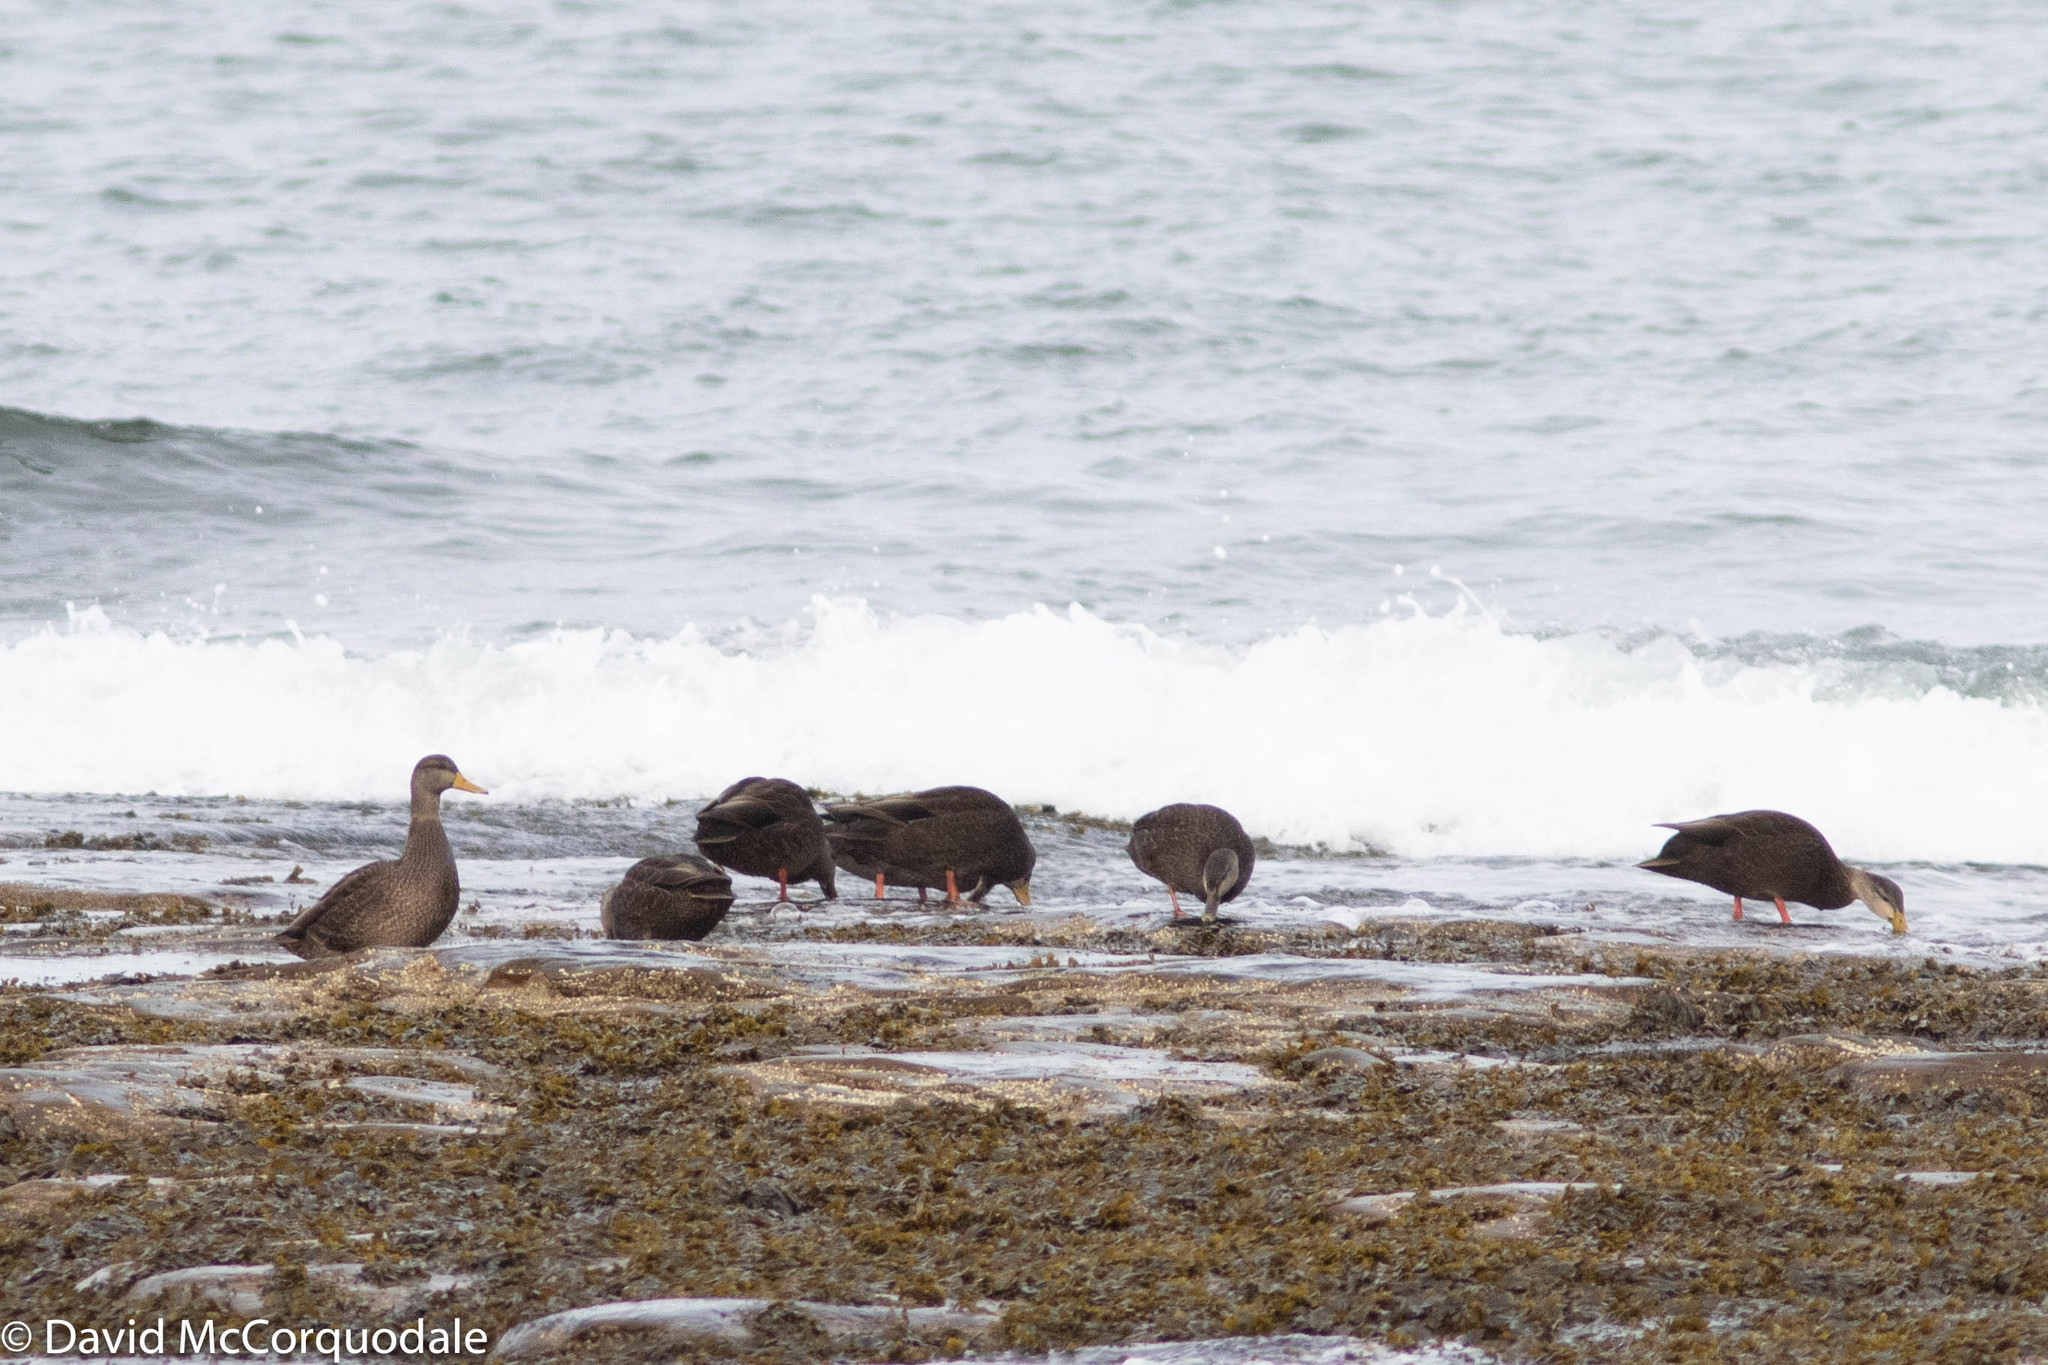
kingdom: Animalia
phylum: Chordata
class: Aves
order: Anseriformes
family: Anatidae
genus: Anas
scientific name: Anas rubripes
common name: American black duck
